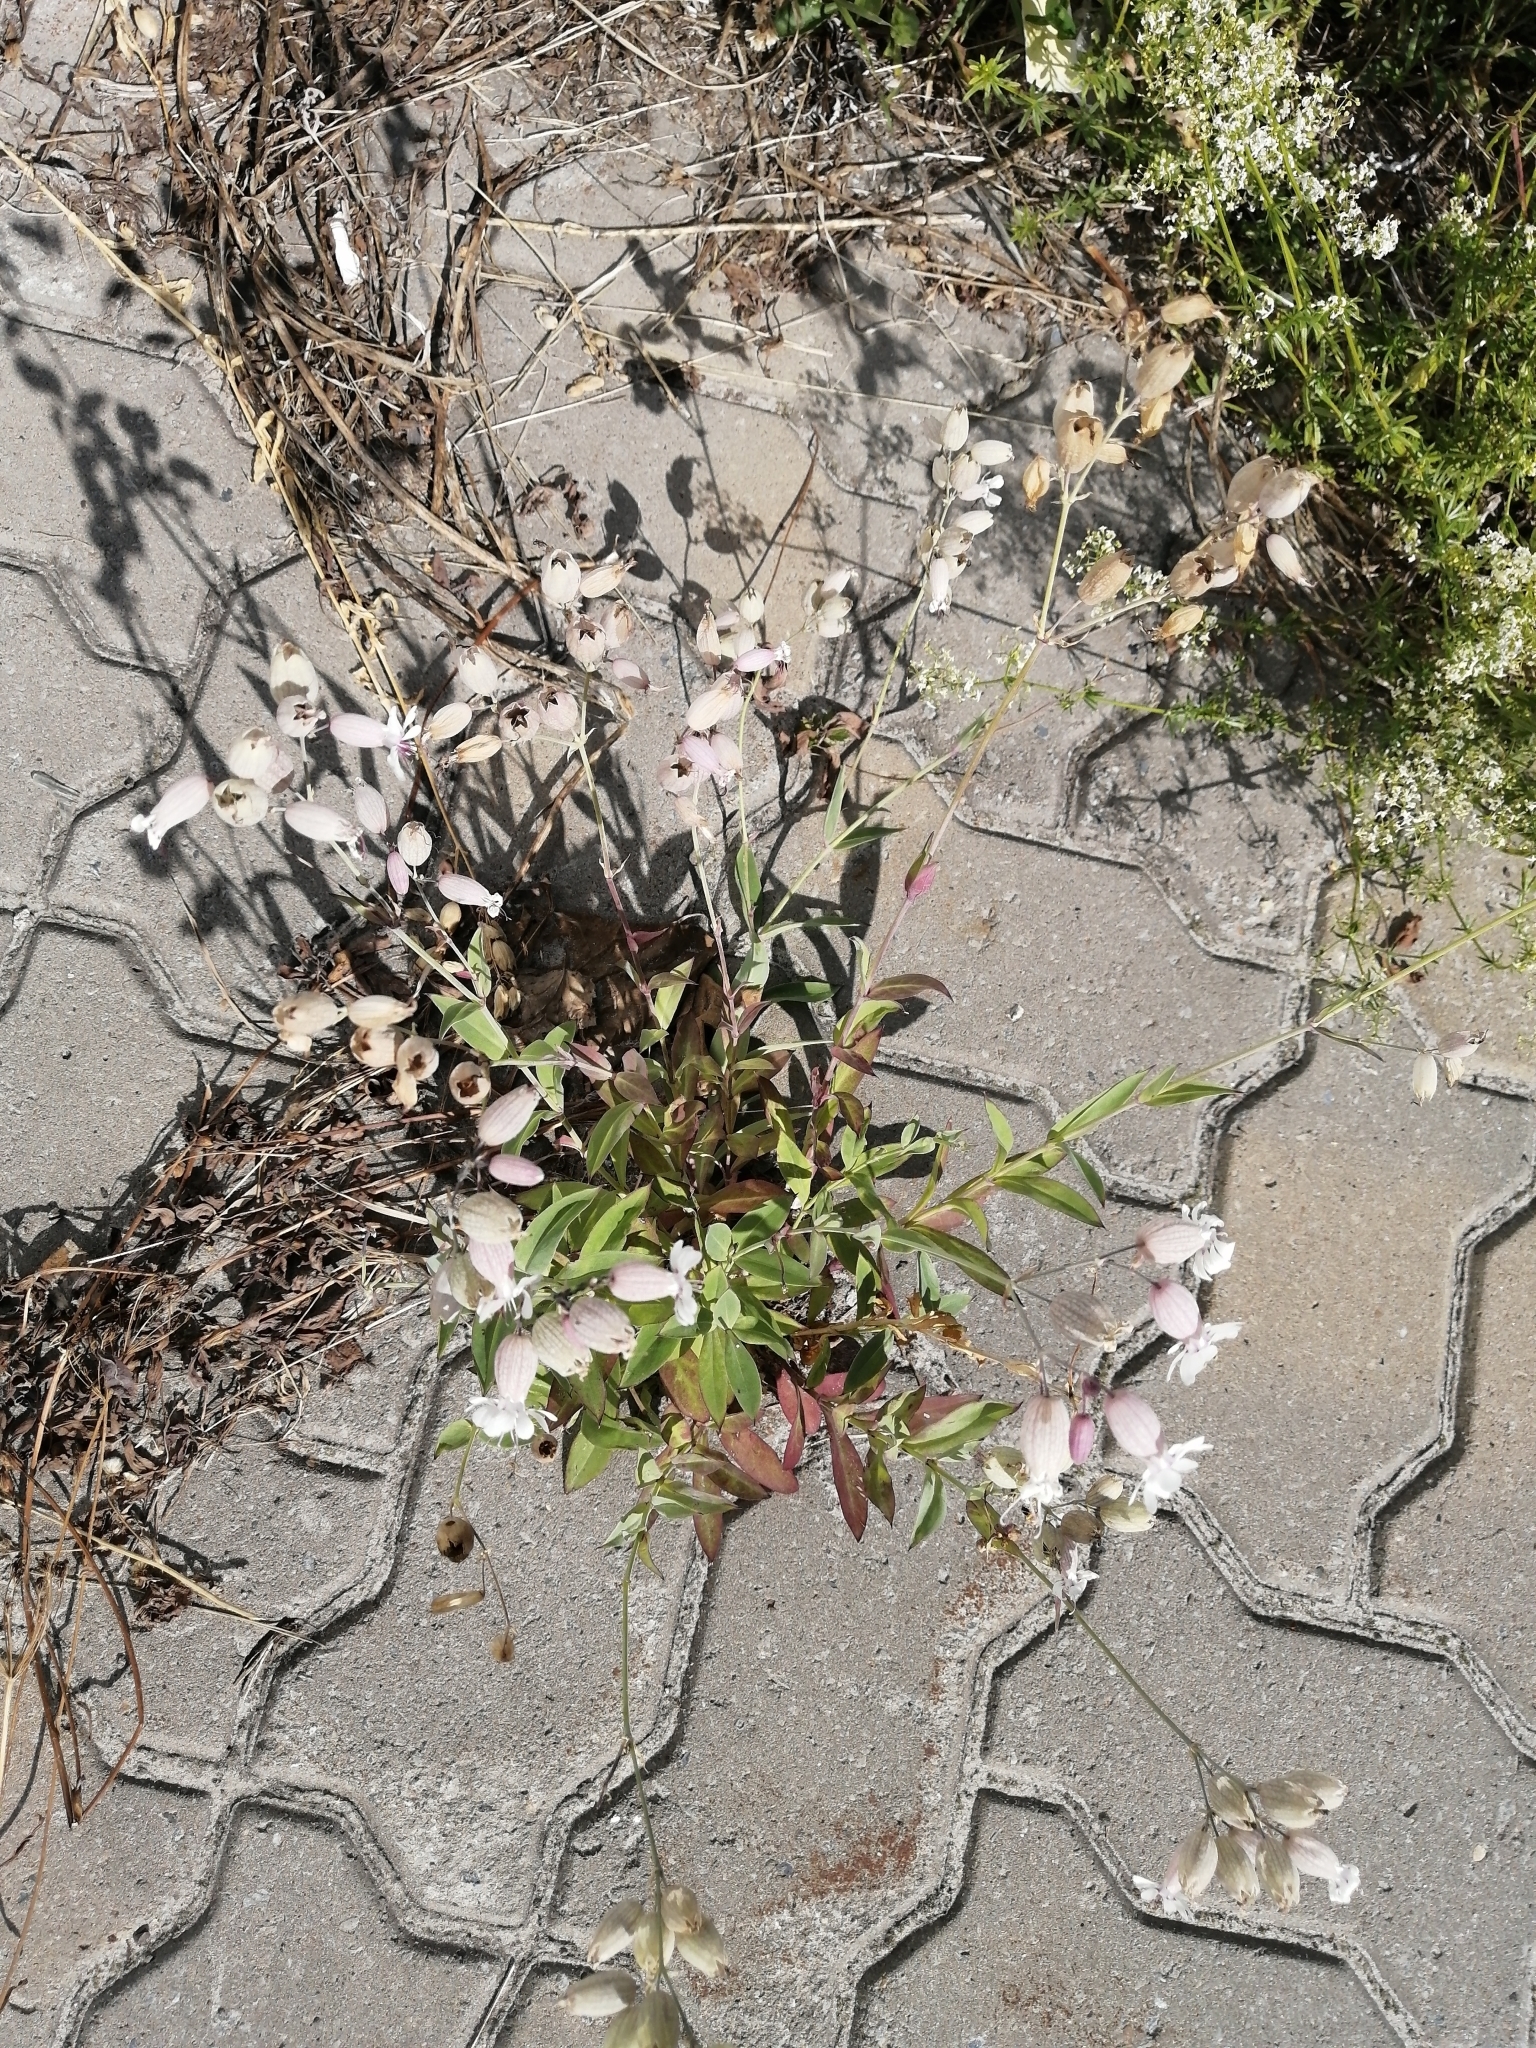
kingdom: Plantae
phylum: Tracheophyta
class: Magnoliopsida
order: Caryophyllales
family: Caryophyllaceae
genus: Silene
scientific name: Silene vulgaris
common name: Bladder campion
